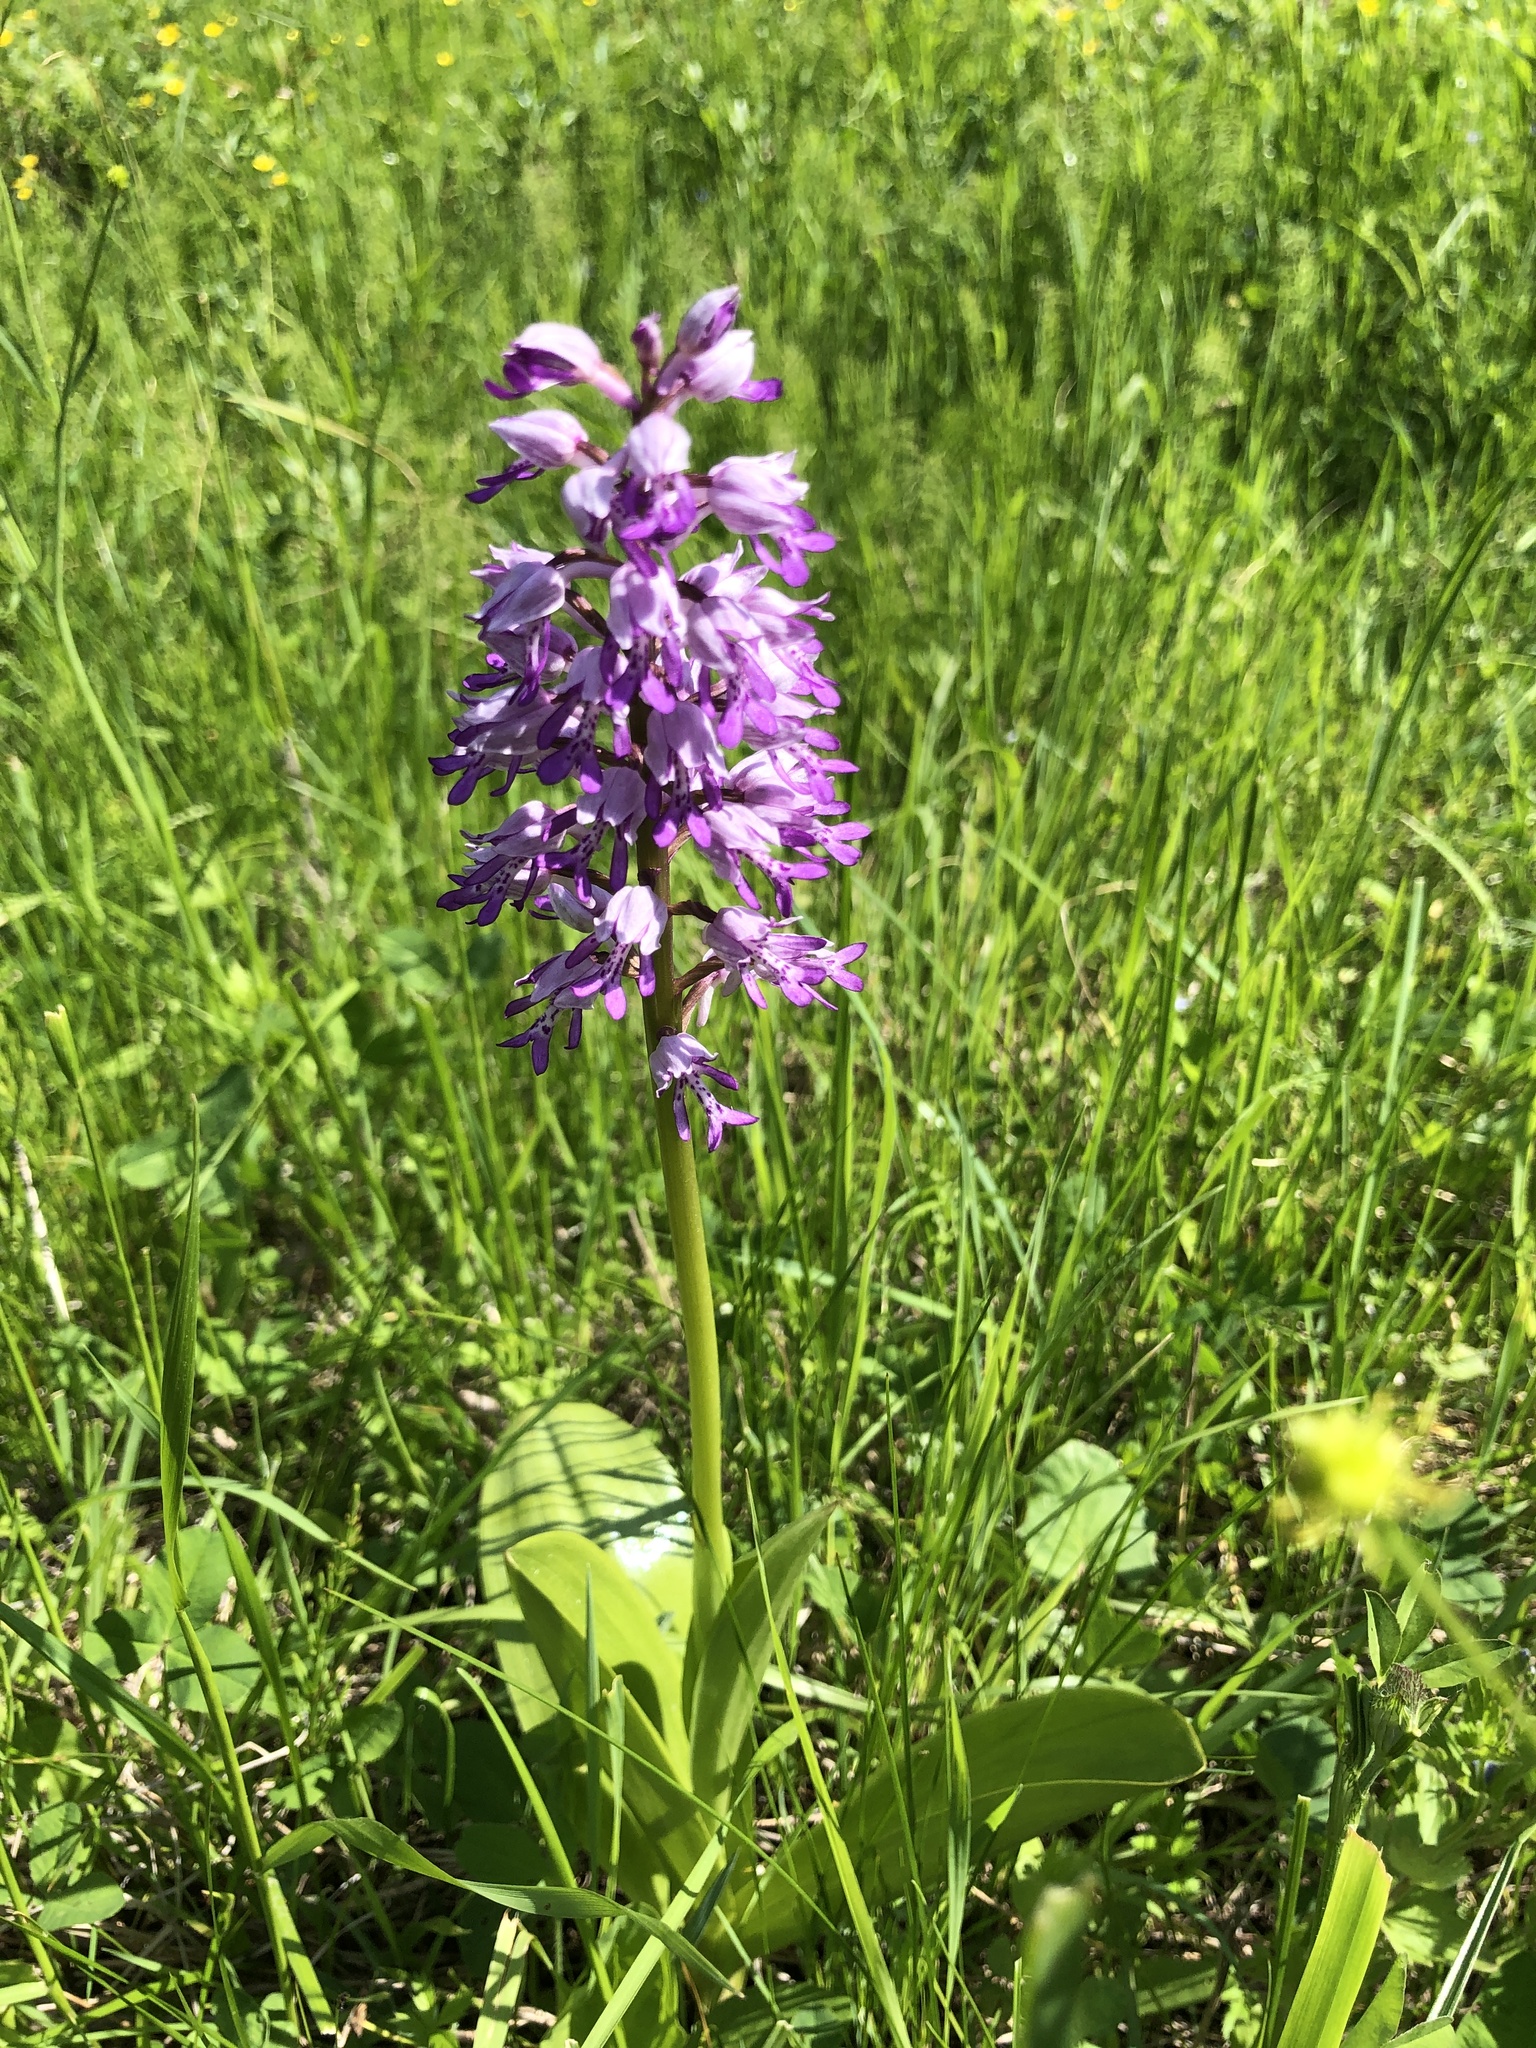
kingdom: Plantae
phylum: Tracheophyta
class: Liliopsida
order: Asparagales
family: Orchidaceae
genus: Orchis
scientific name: Orchis militaris
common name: Military orchid
